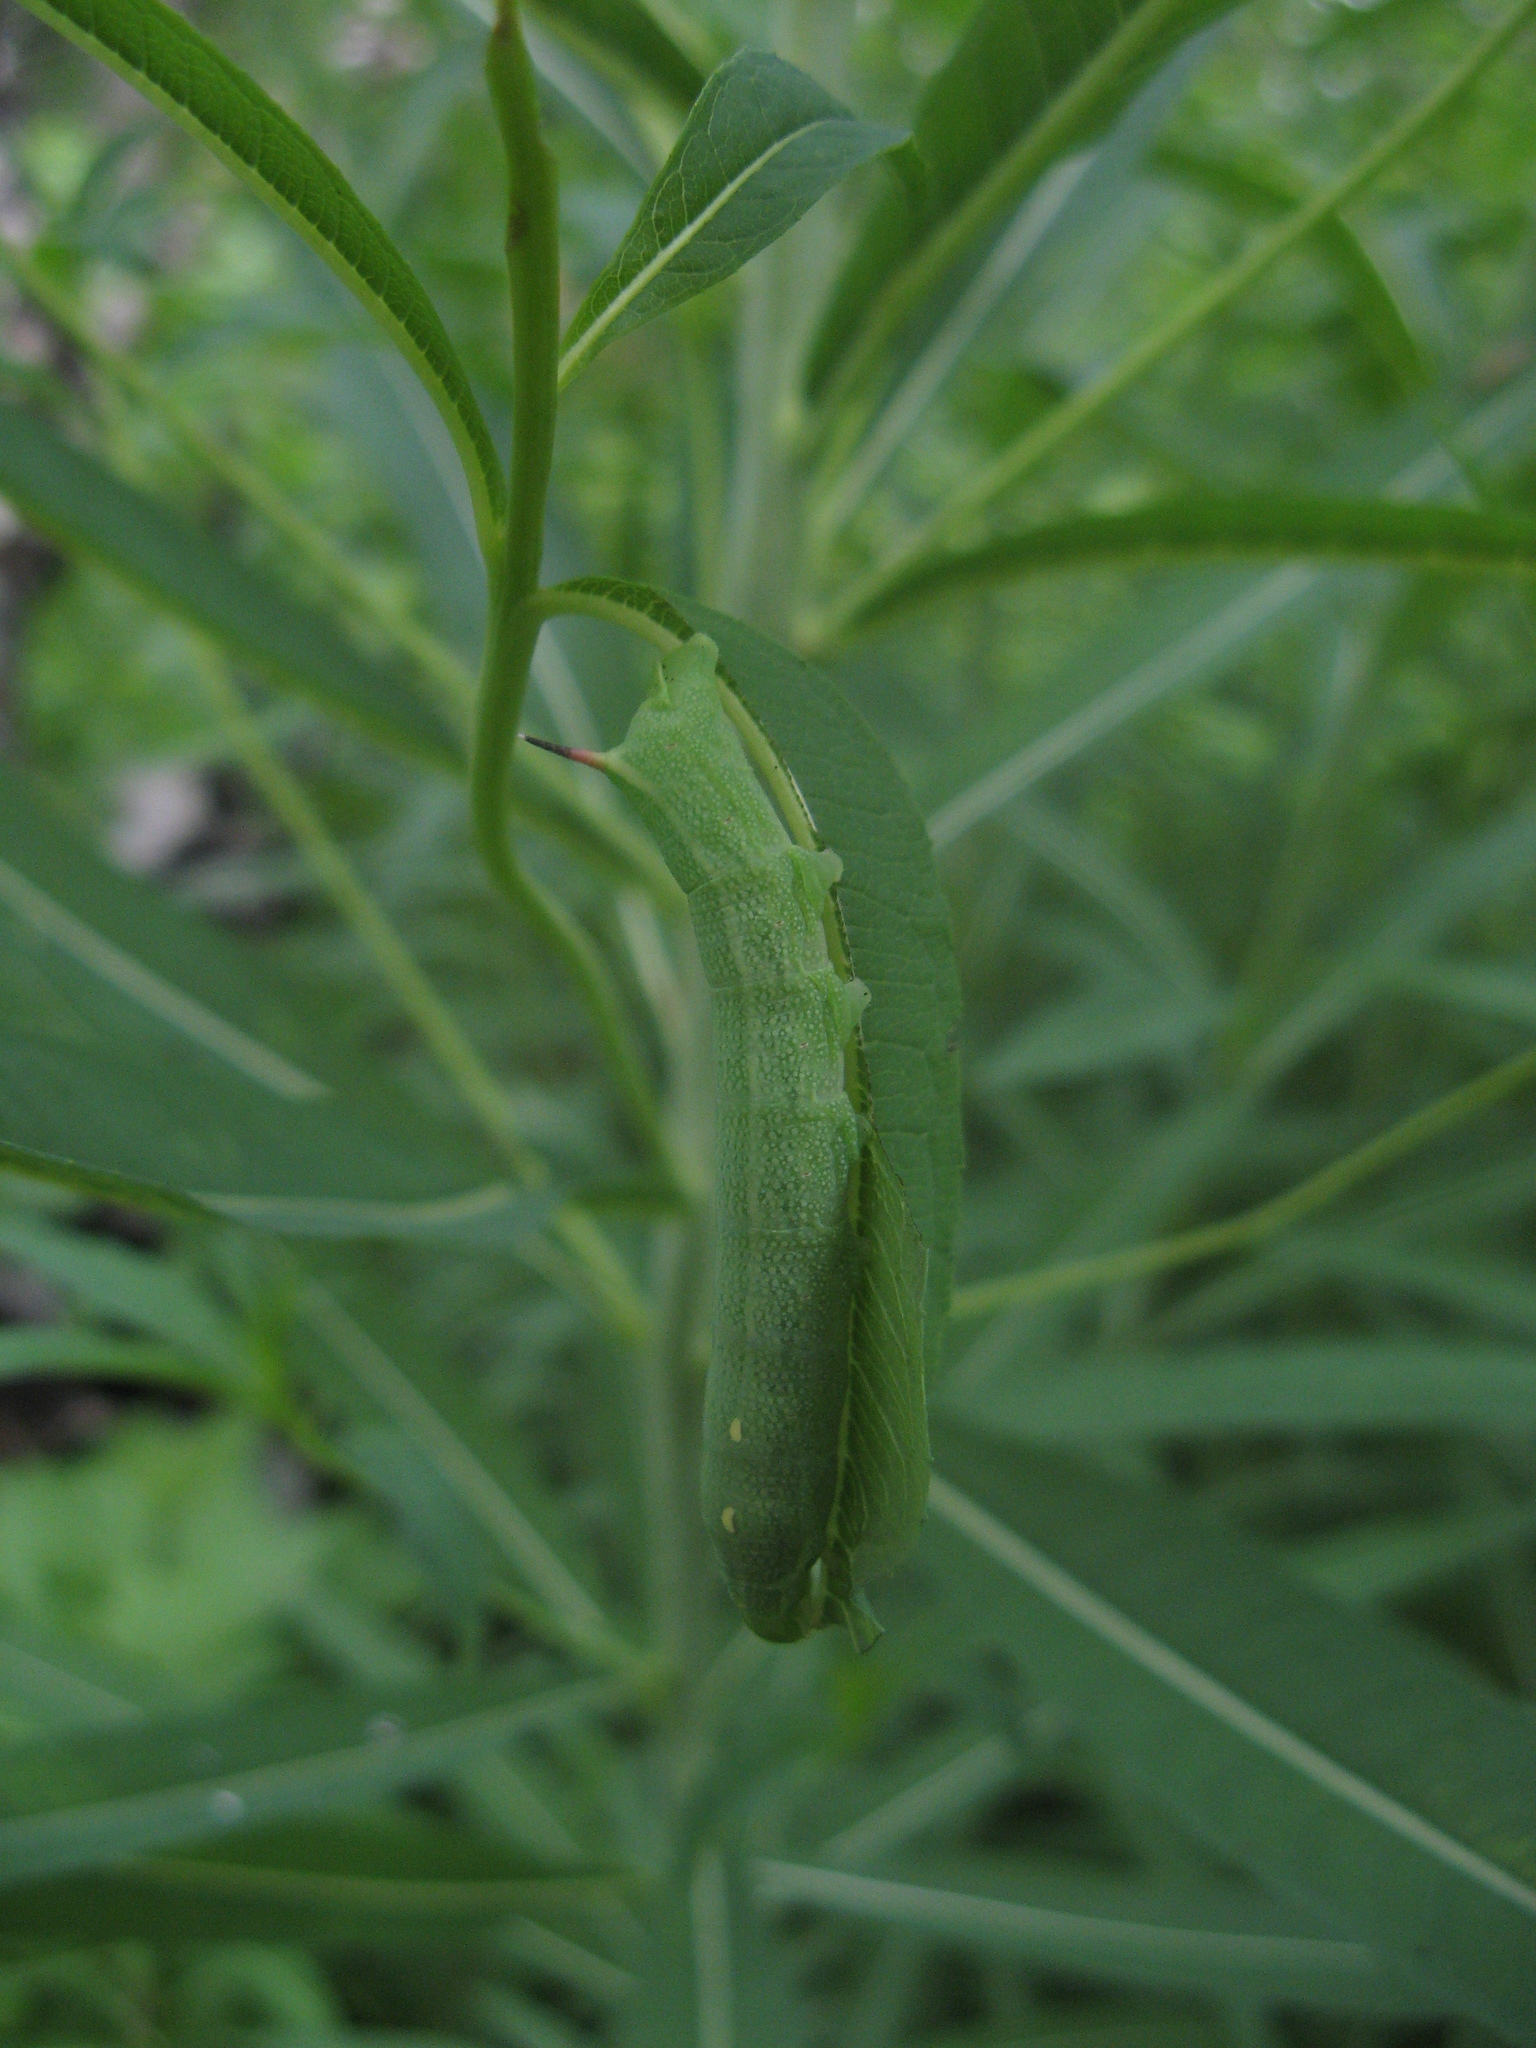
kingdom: Animalia
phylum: Arthropoda
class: Insecta
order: Lepidoptera
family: Sphingidae
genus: Deilephila
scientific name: Deilephila elpenor
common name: Elephant hawk-moth
